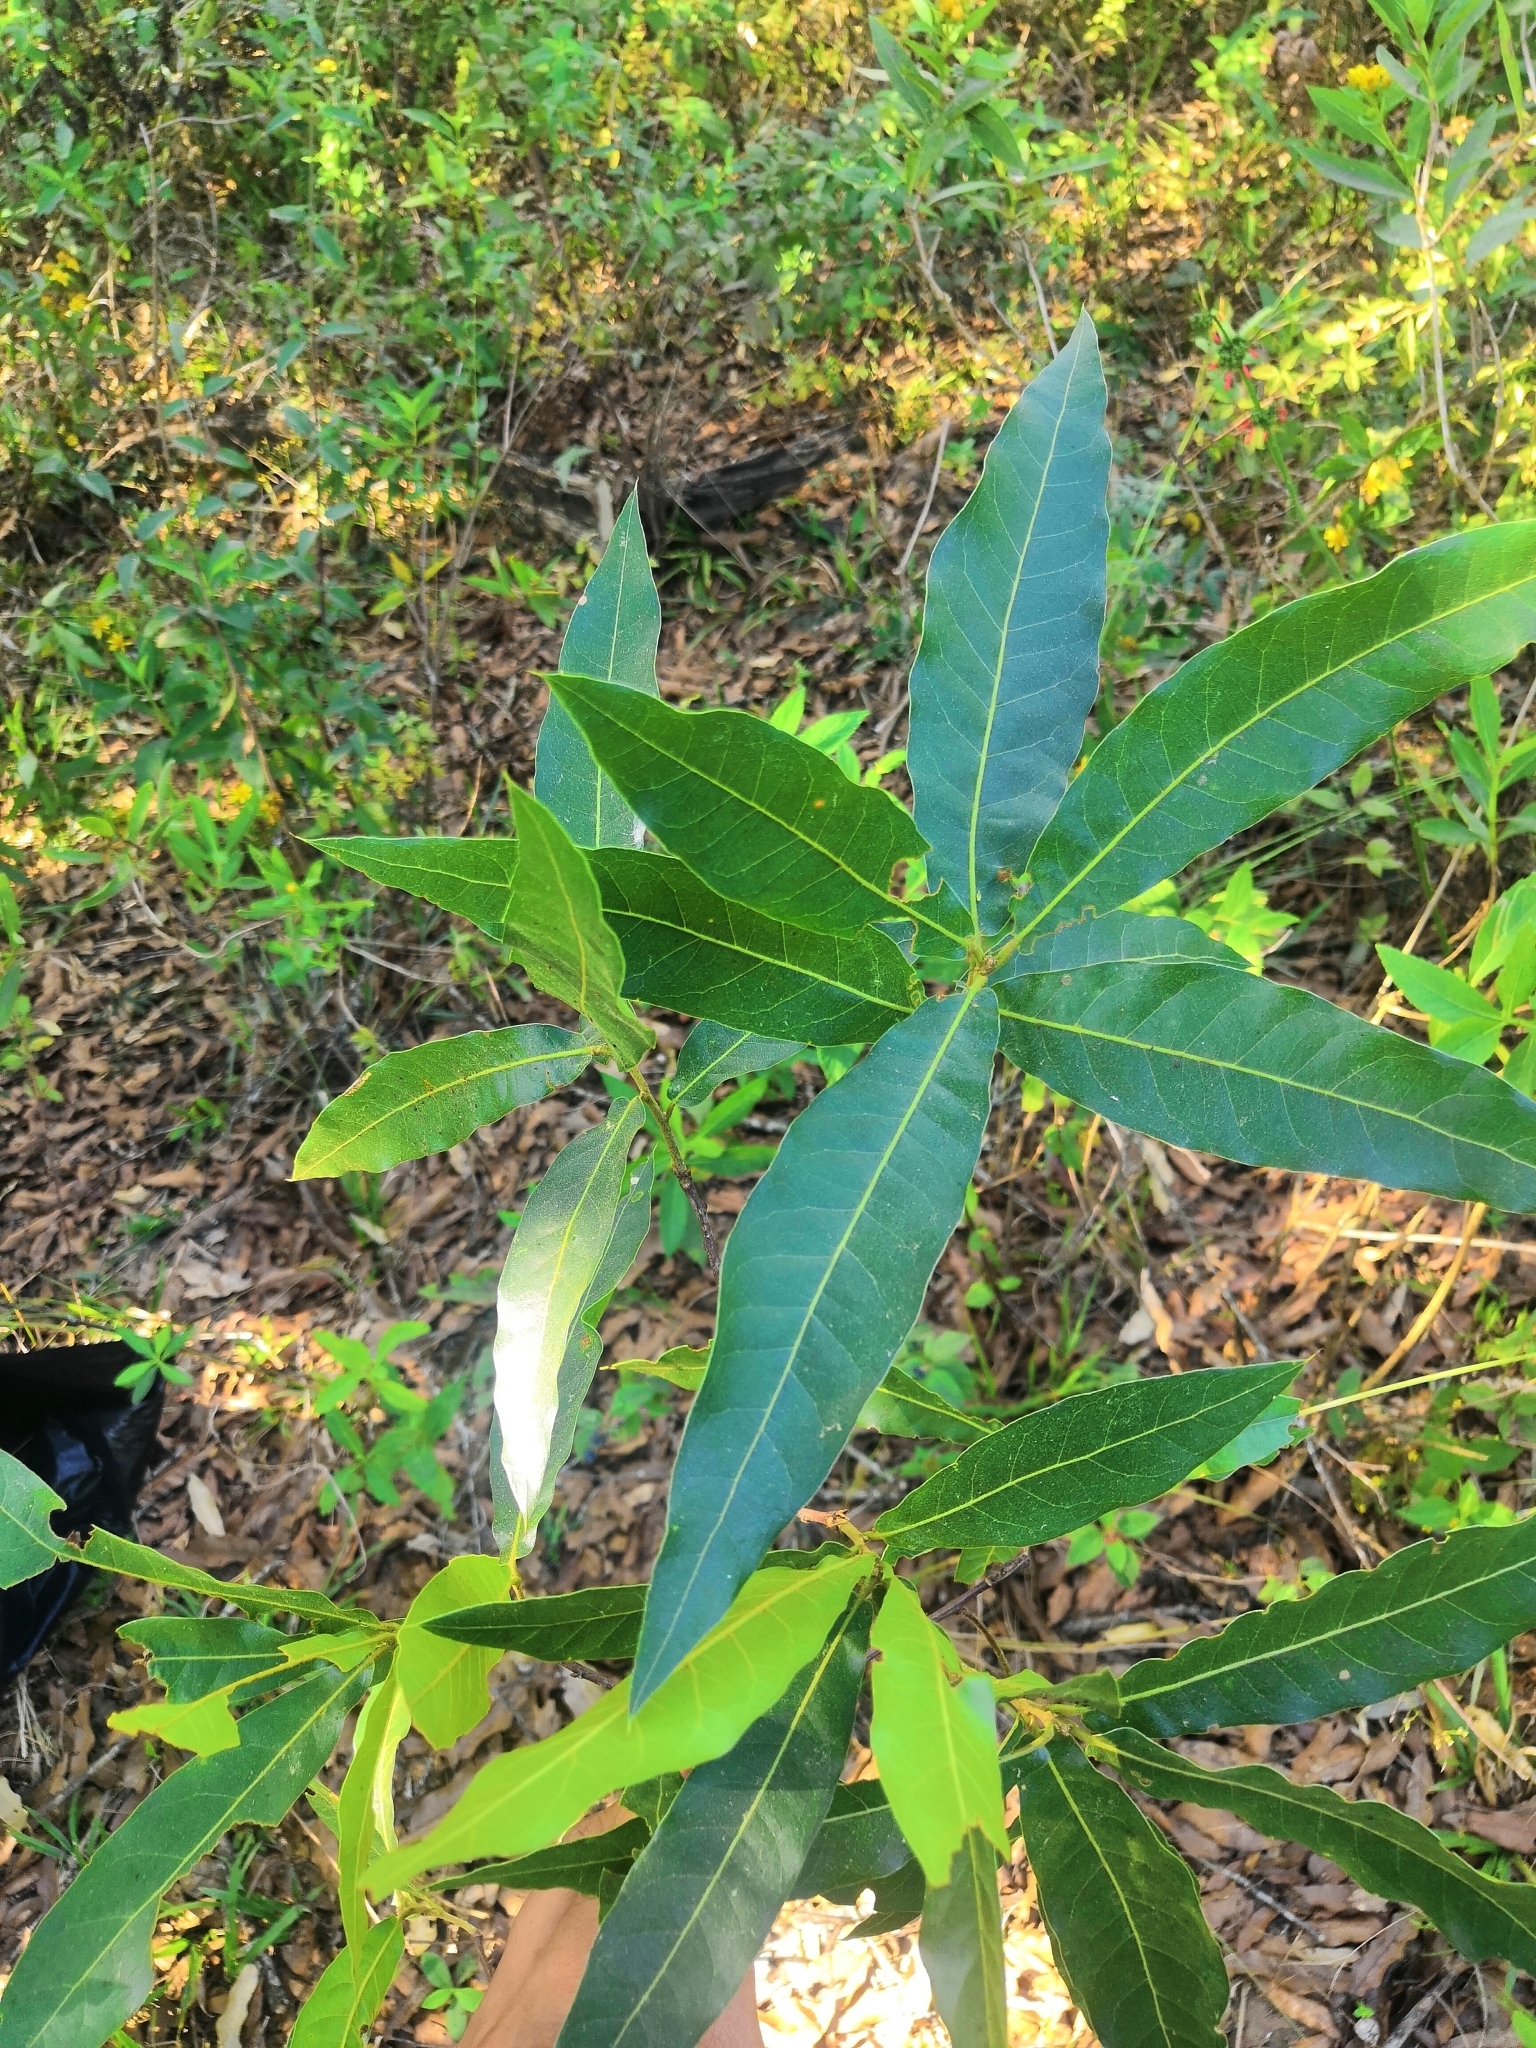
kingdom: Plantae
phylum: Tracheophyta
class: Magnoliopsida
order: Fagales
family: Fagaceae
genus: Quercus
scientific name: Quercus iltisii
